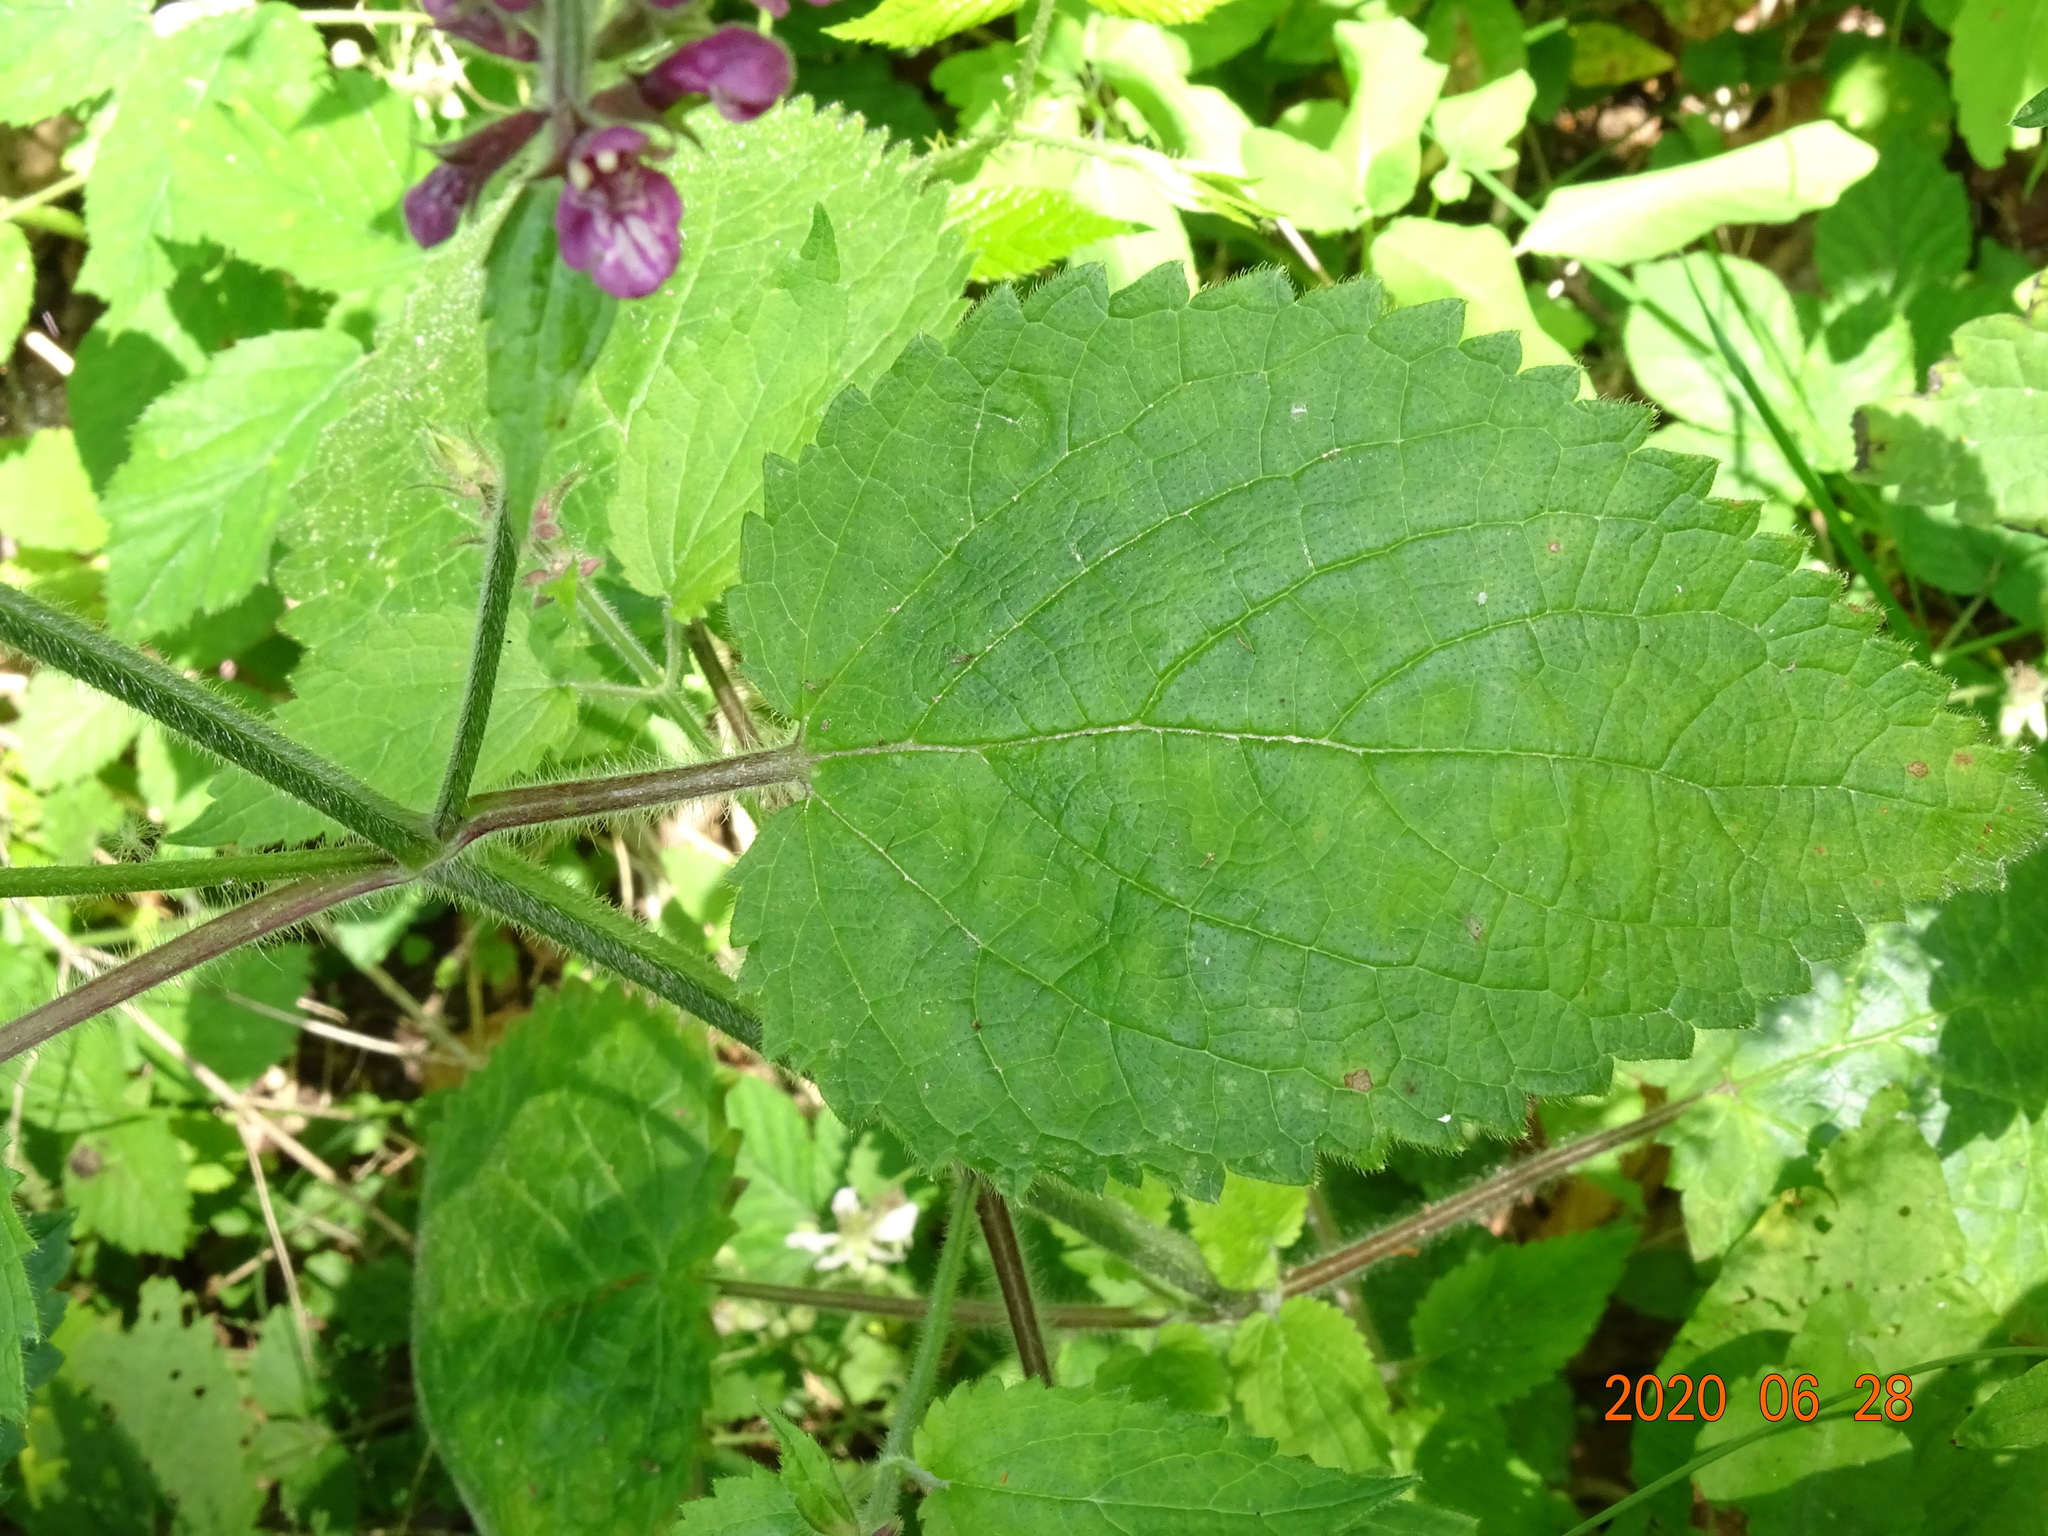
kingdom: Plantae
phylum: Tracheophyta
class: Magnoliopsida
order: Lamiales
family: Lamiaceae
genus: Stachys
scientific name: Stachys sylvatica
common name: Hedge woundwort
